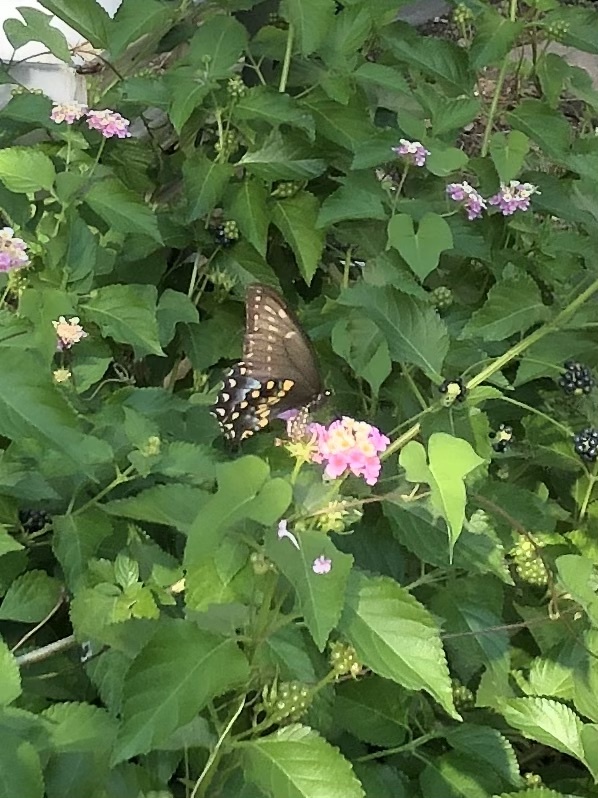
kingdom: Animalia
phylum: Arthropoda
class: Insecta
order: Lepidoptera
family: Papilionidae
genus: Papilio
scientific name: Papilio polyxenes
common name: Black swallowtail
